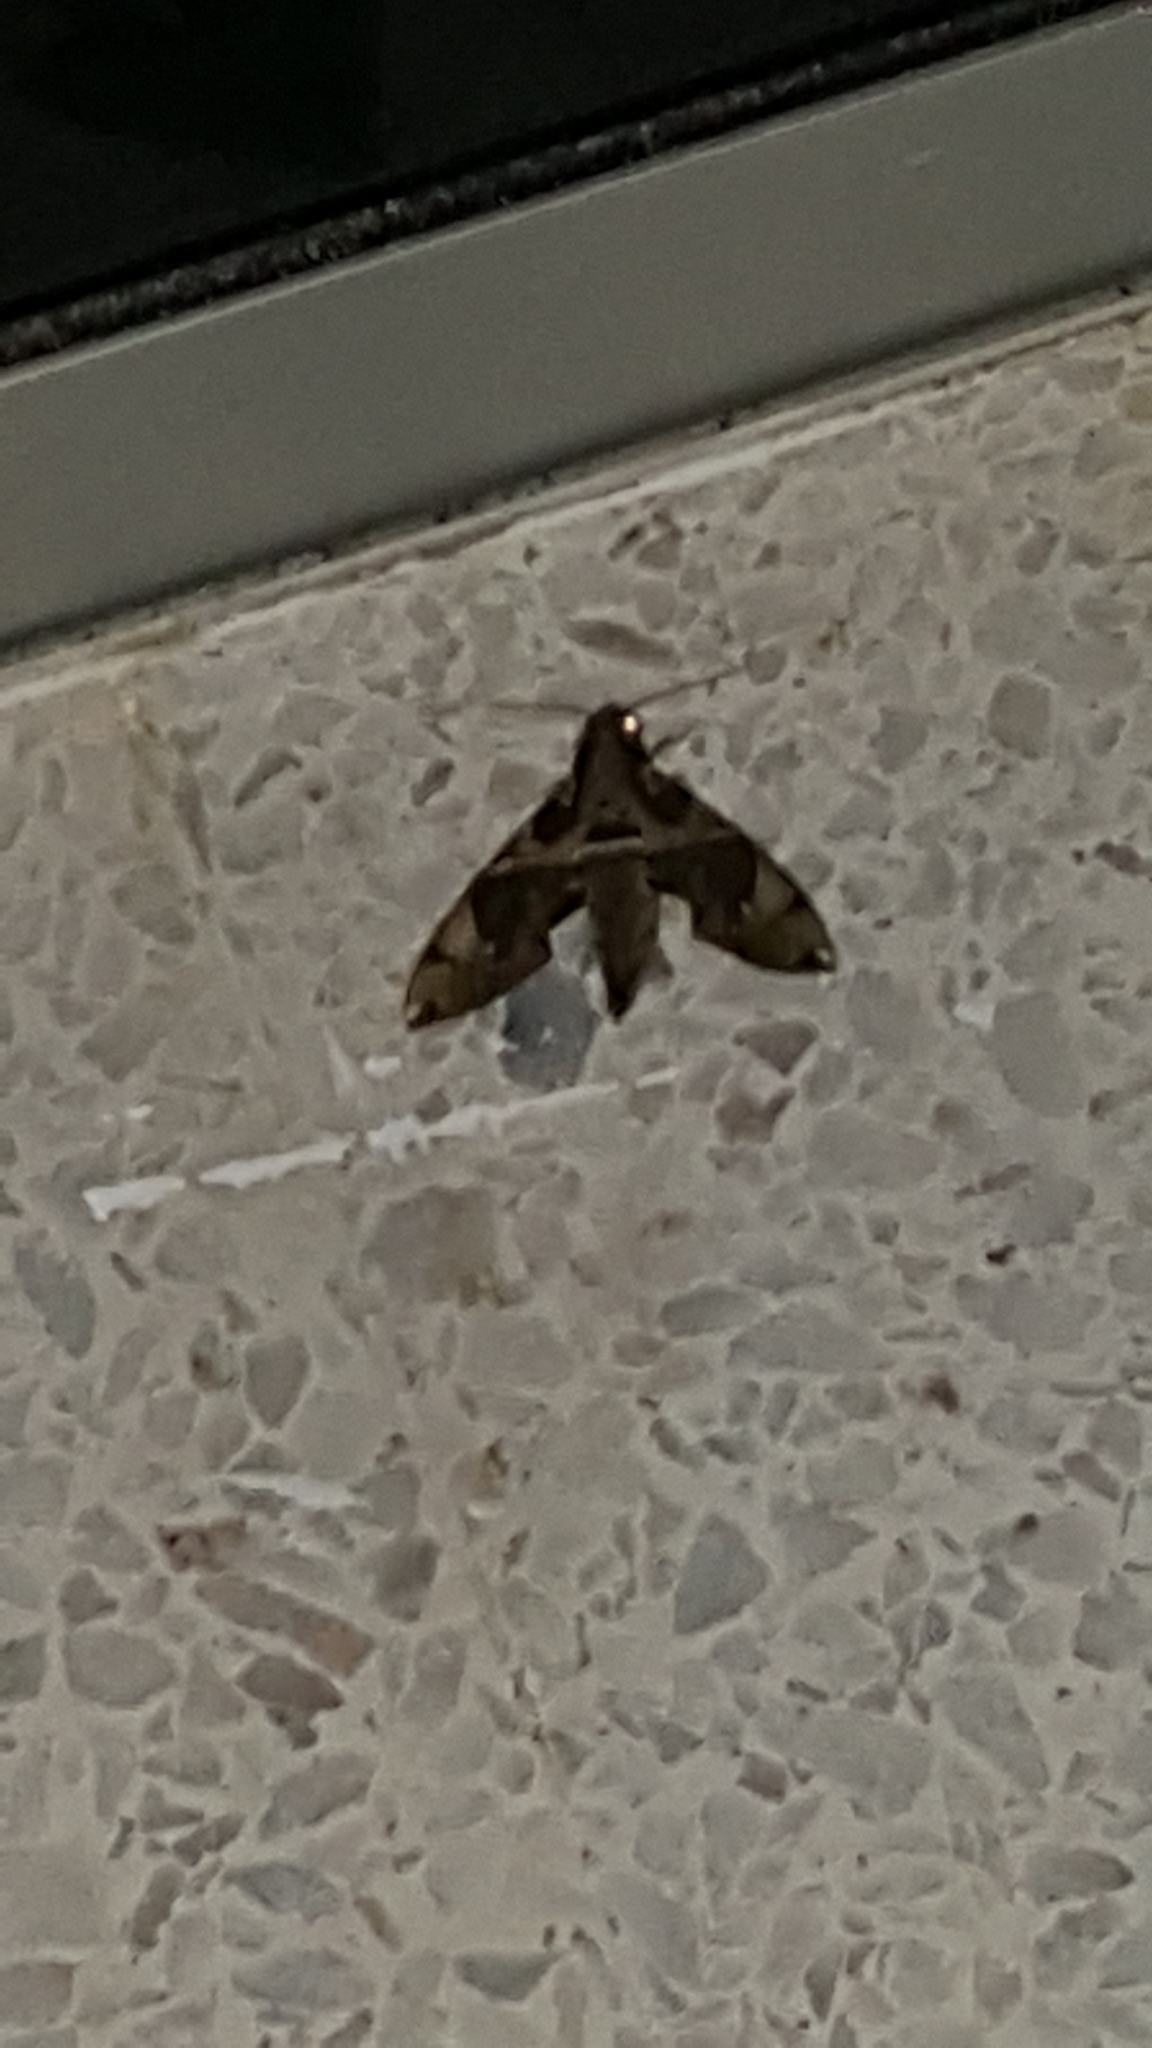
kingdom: Animalia
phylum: Arthropoda
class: Insecta
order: Lepidoptera
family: Sphingidae
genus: Daphnis
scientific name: Daphnis hypothous
